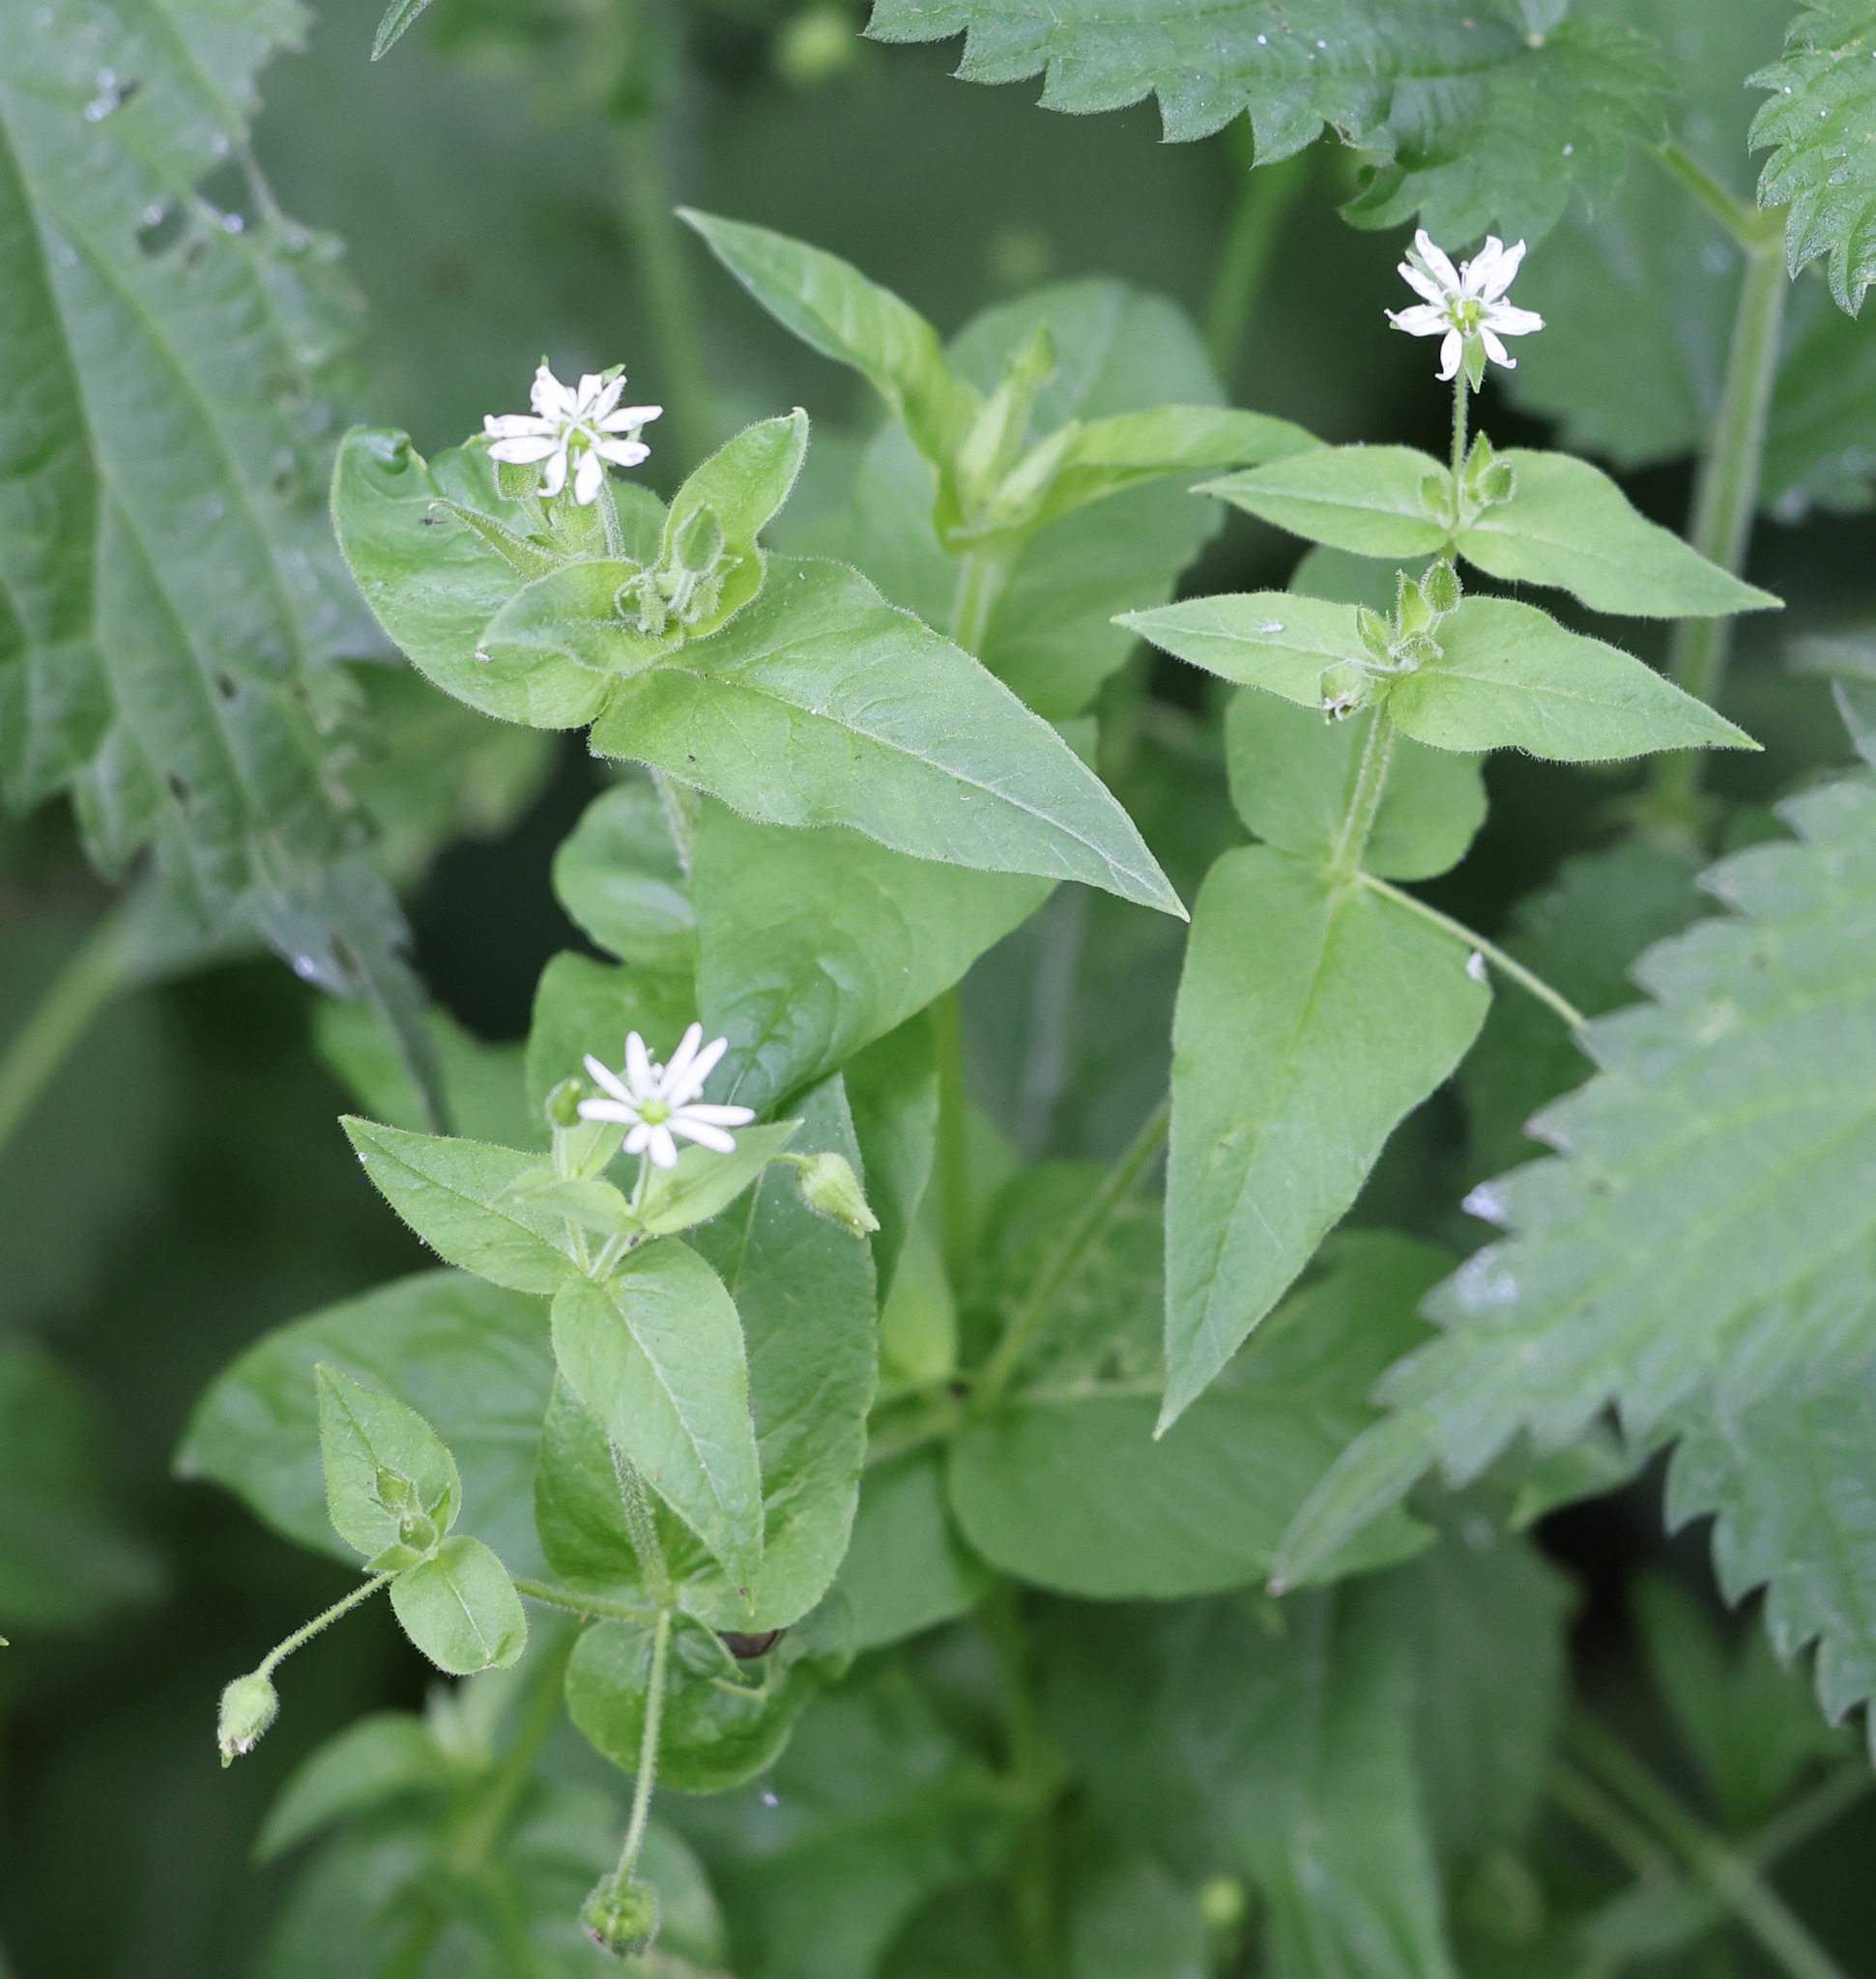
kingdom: Plantae
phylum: Tracheophyta
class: Magnoliopsida
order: Caryophyllales
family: Caryophyllaceae
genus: Stellaria
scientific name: Stellaria aquatica
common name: Water chickweed
